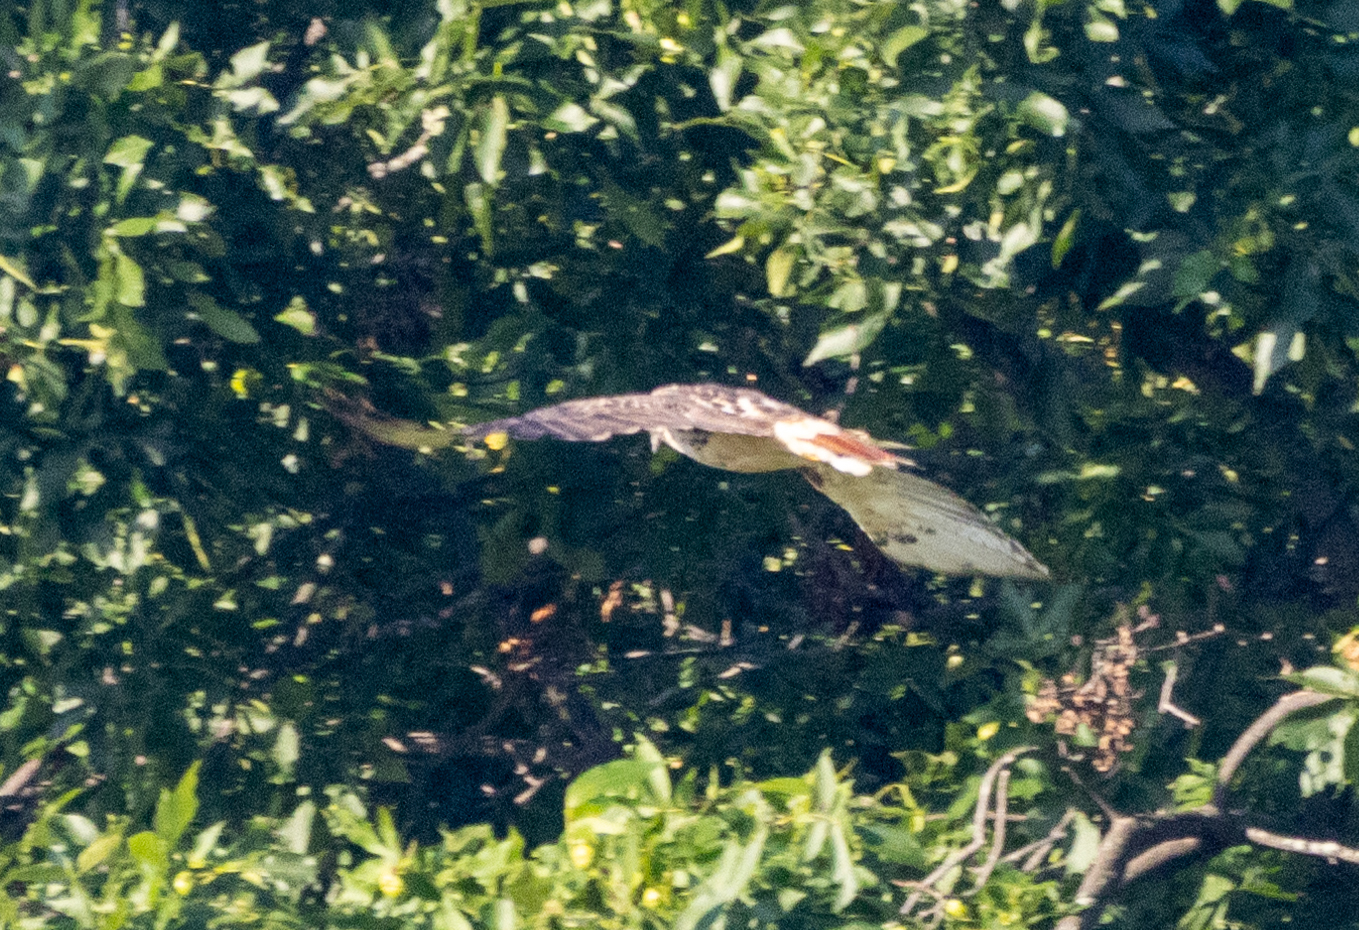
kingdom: Animalia
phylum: Chordata
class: Aves
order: Accipitriformes
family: Accipitridae
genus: Buteo
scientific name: Buteo jamaicensis
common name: Red-tailed hawk
